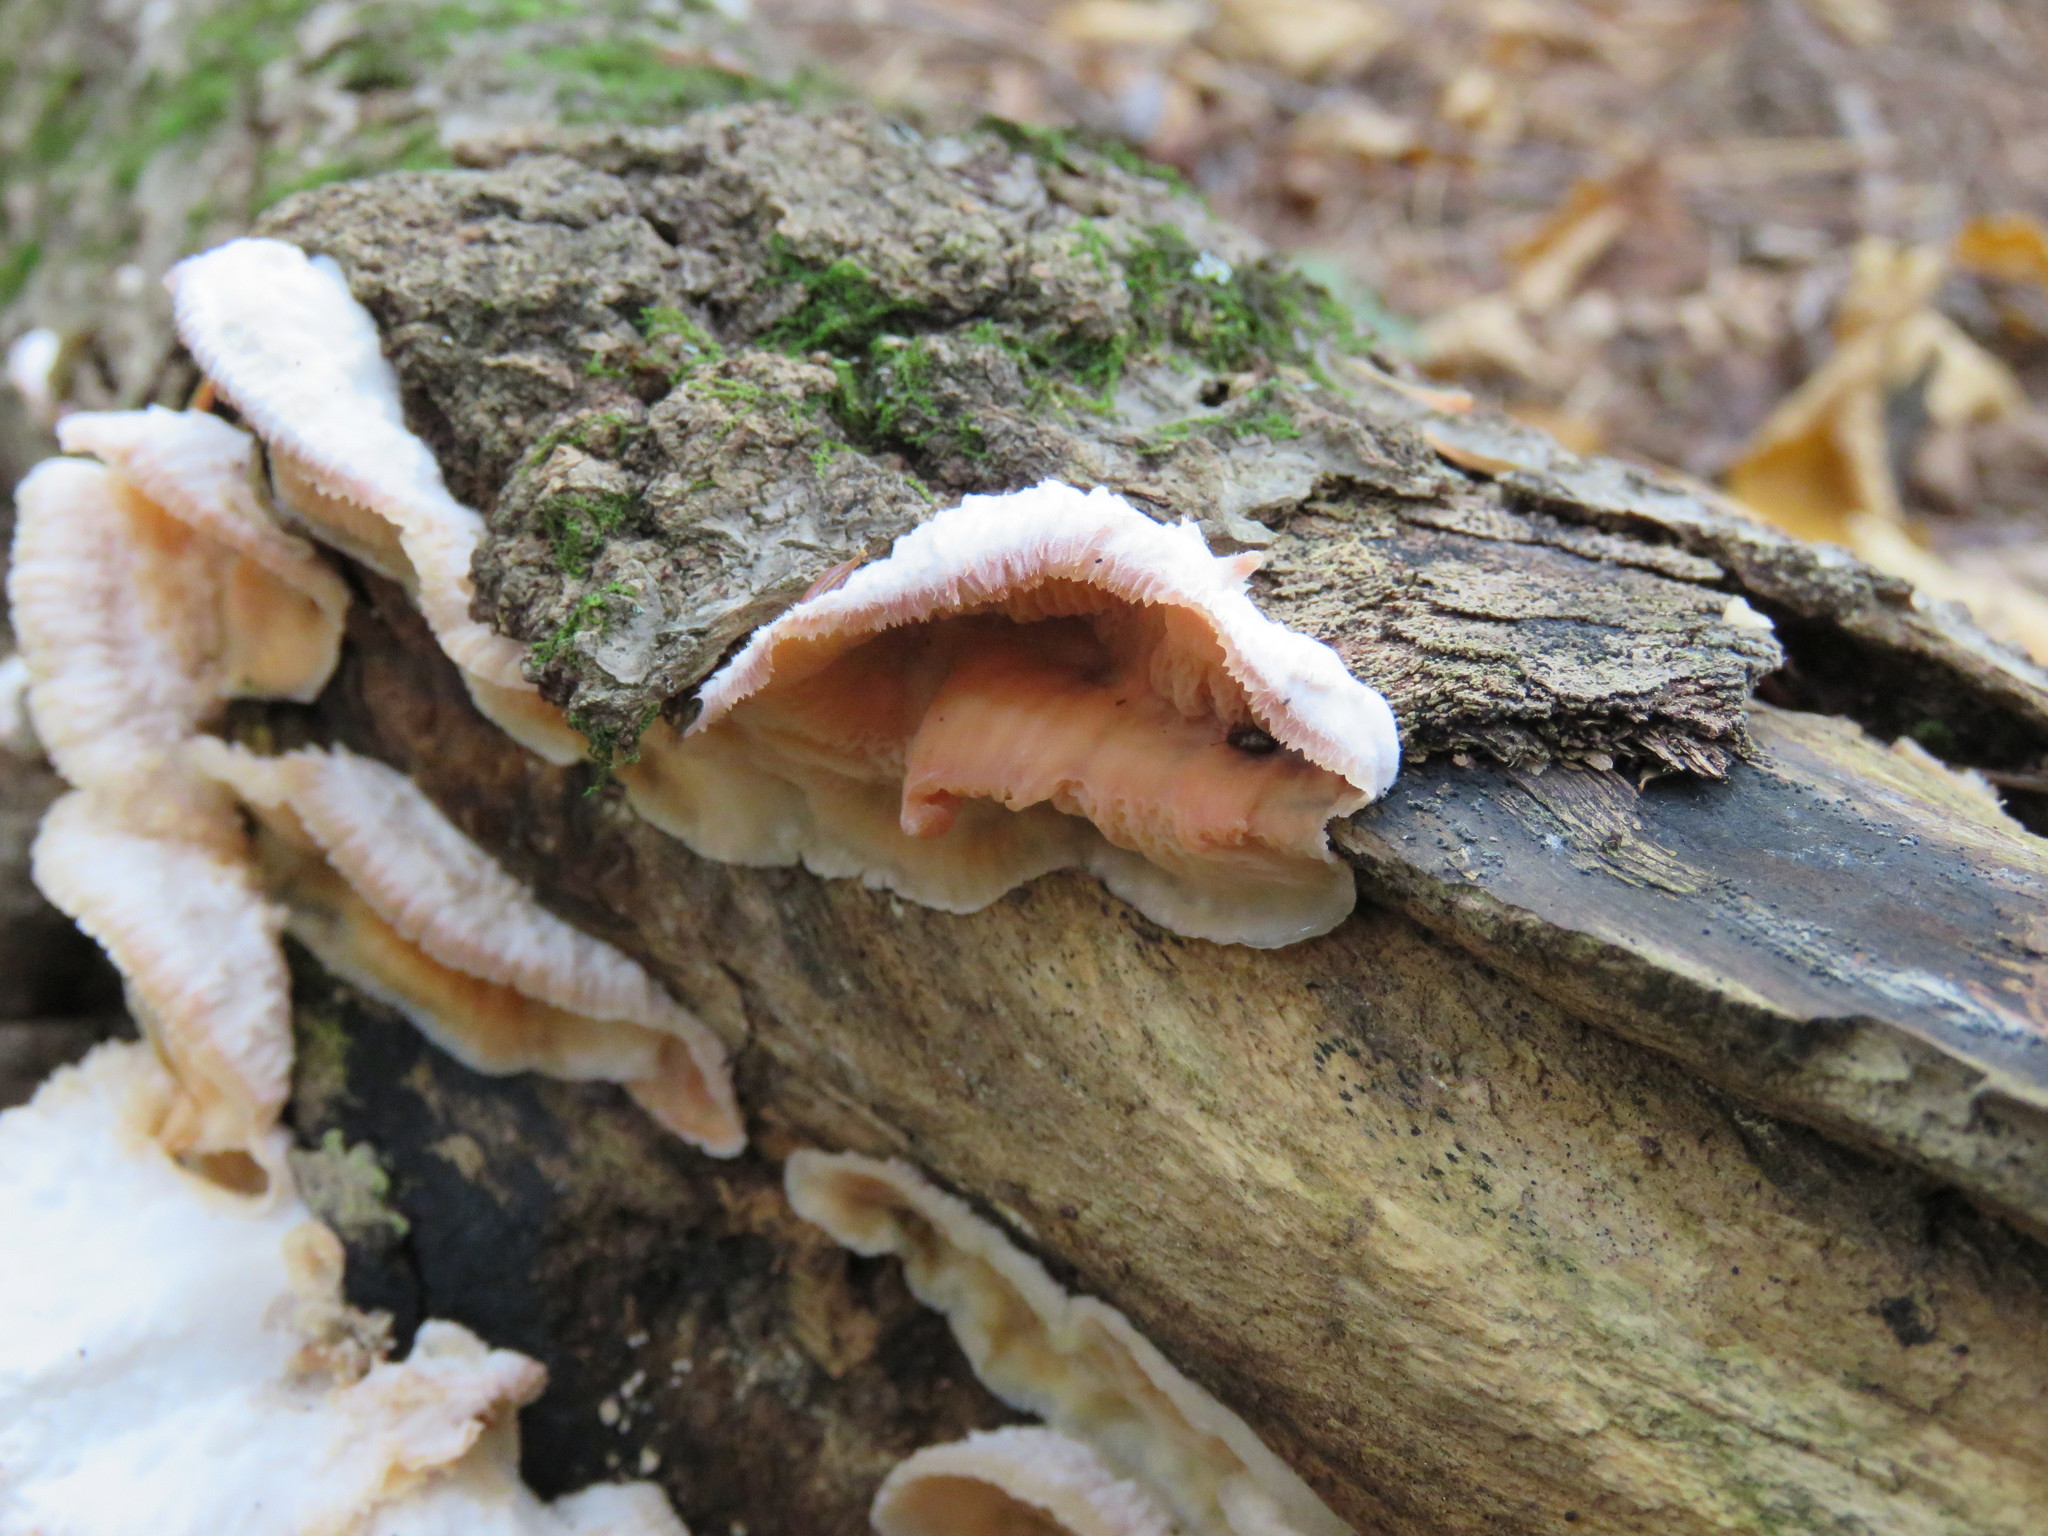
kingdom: Fungi
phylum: Basidiomycota
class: Agaricomycetes
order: Polyporales
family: Meruliaceae
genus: Phlebia
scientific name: Phlebia tremellosa
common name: Jelly rot
